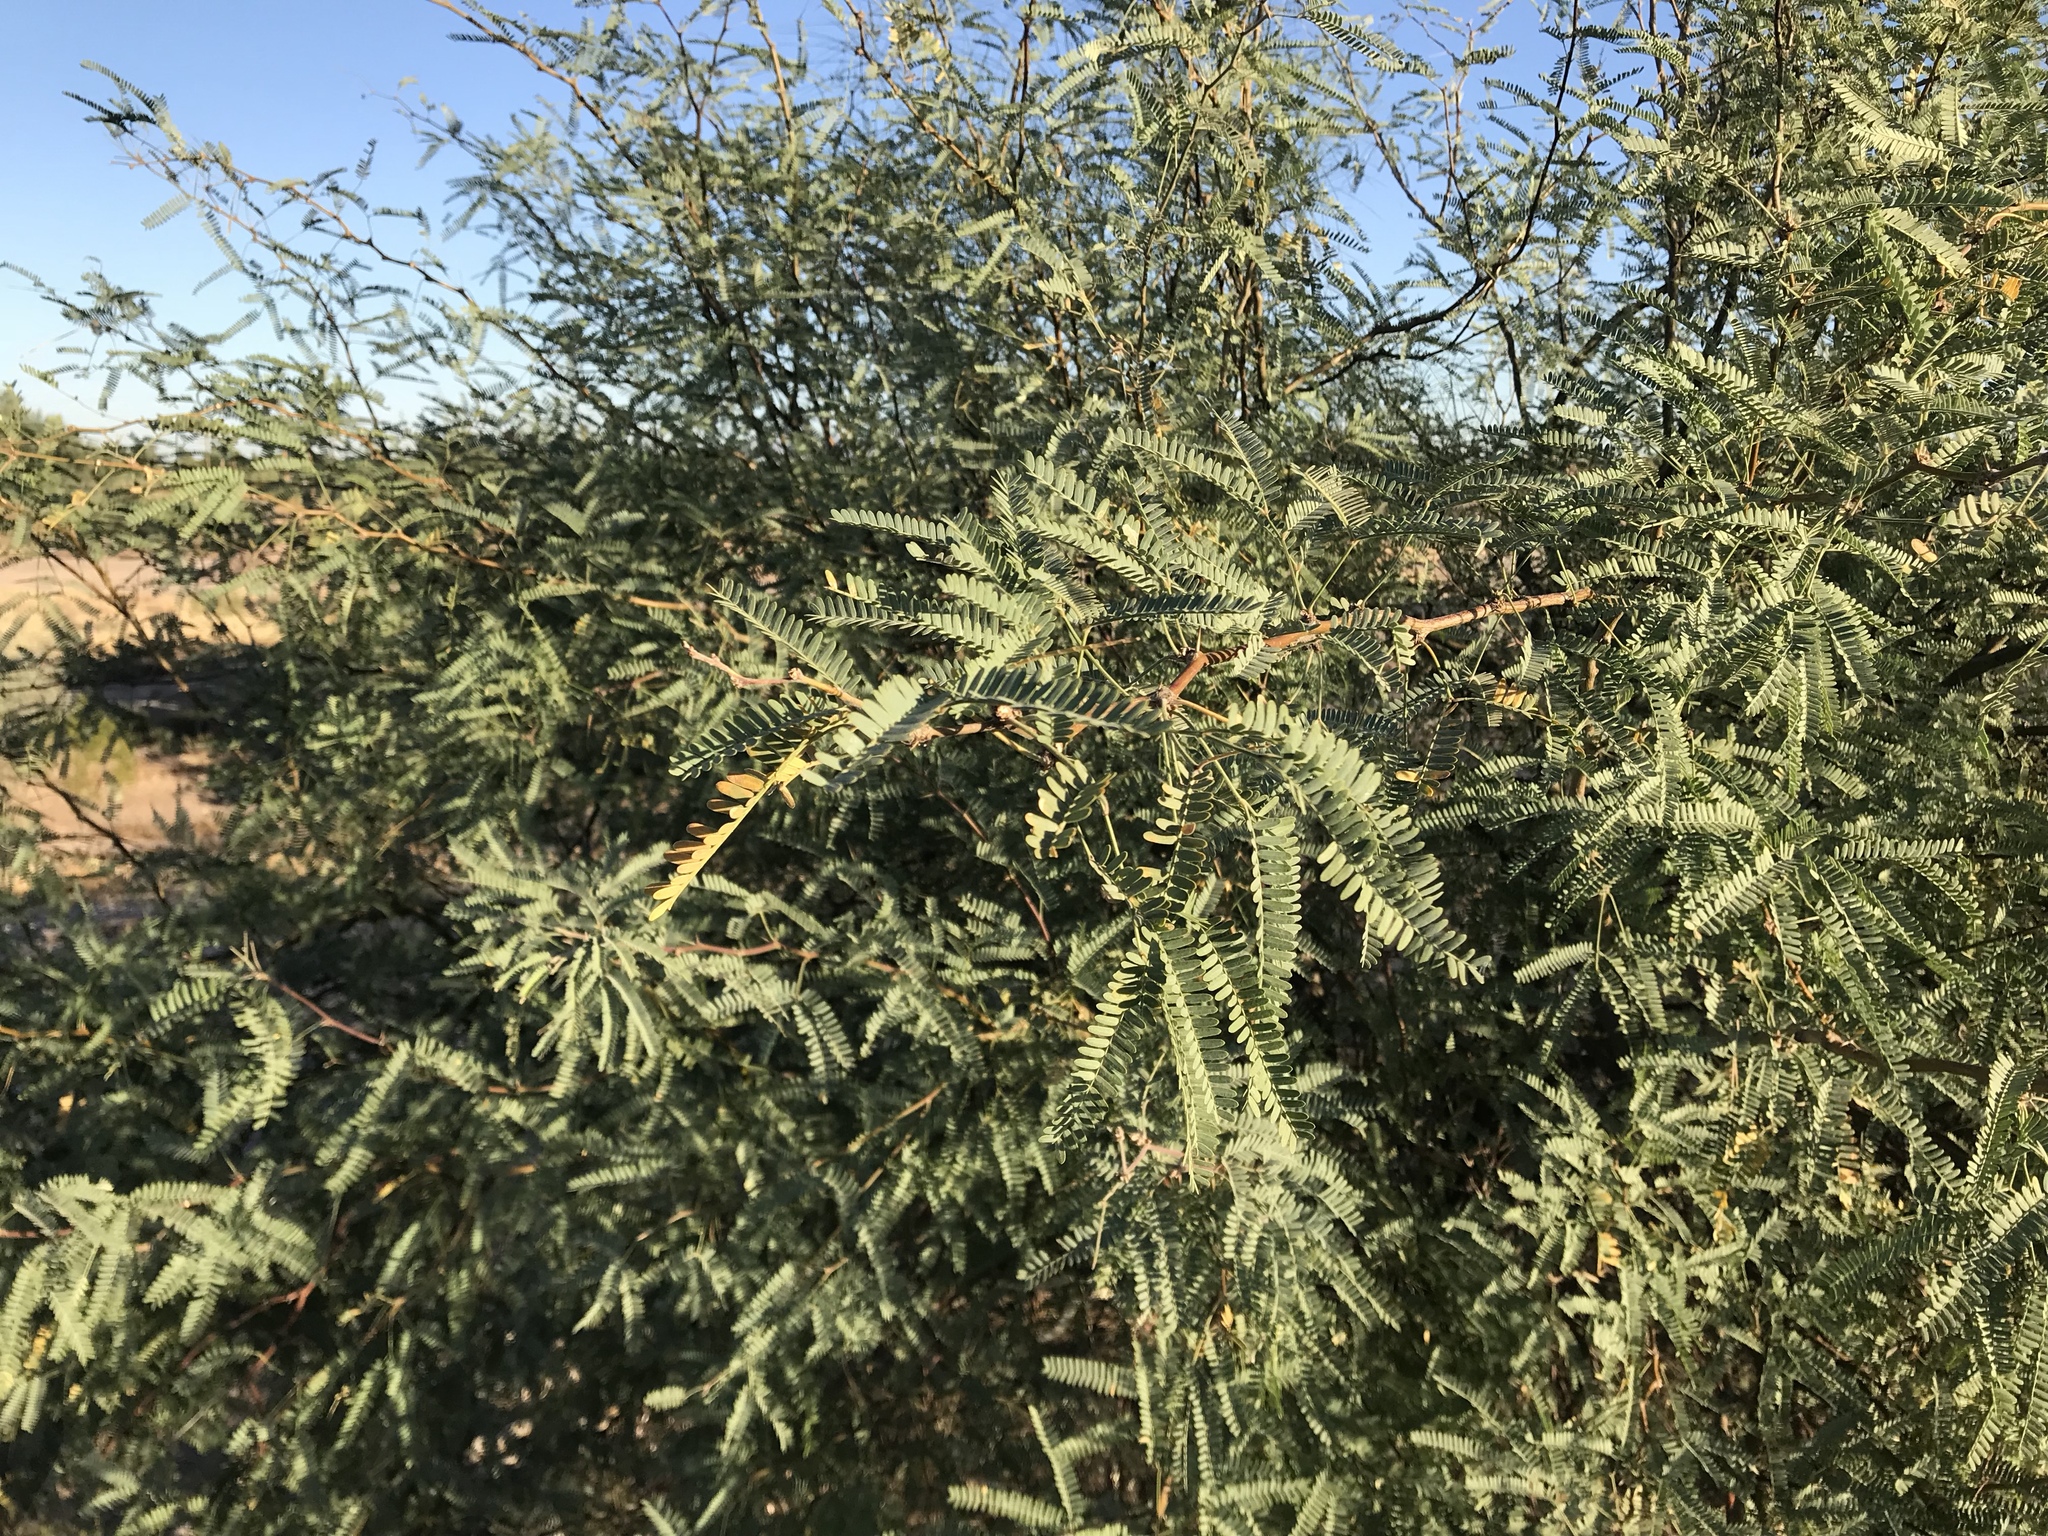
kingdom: Plantae
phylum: Tracheophyta
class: Magnoliopsida
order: Fabales
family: Fabaceae
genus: Prosopis
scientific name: Prosopis velutina
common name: Velvet mesquite
